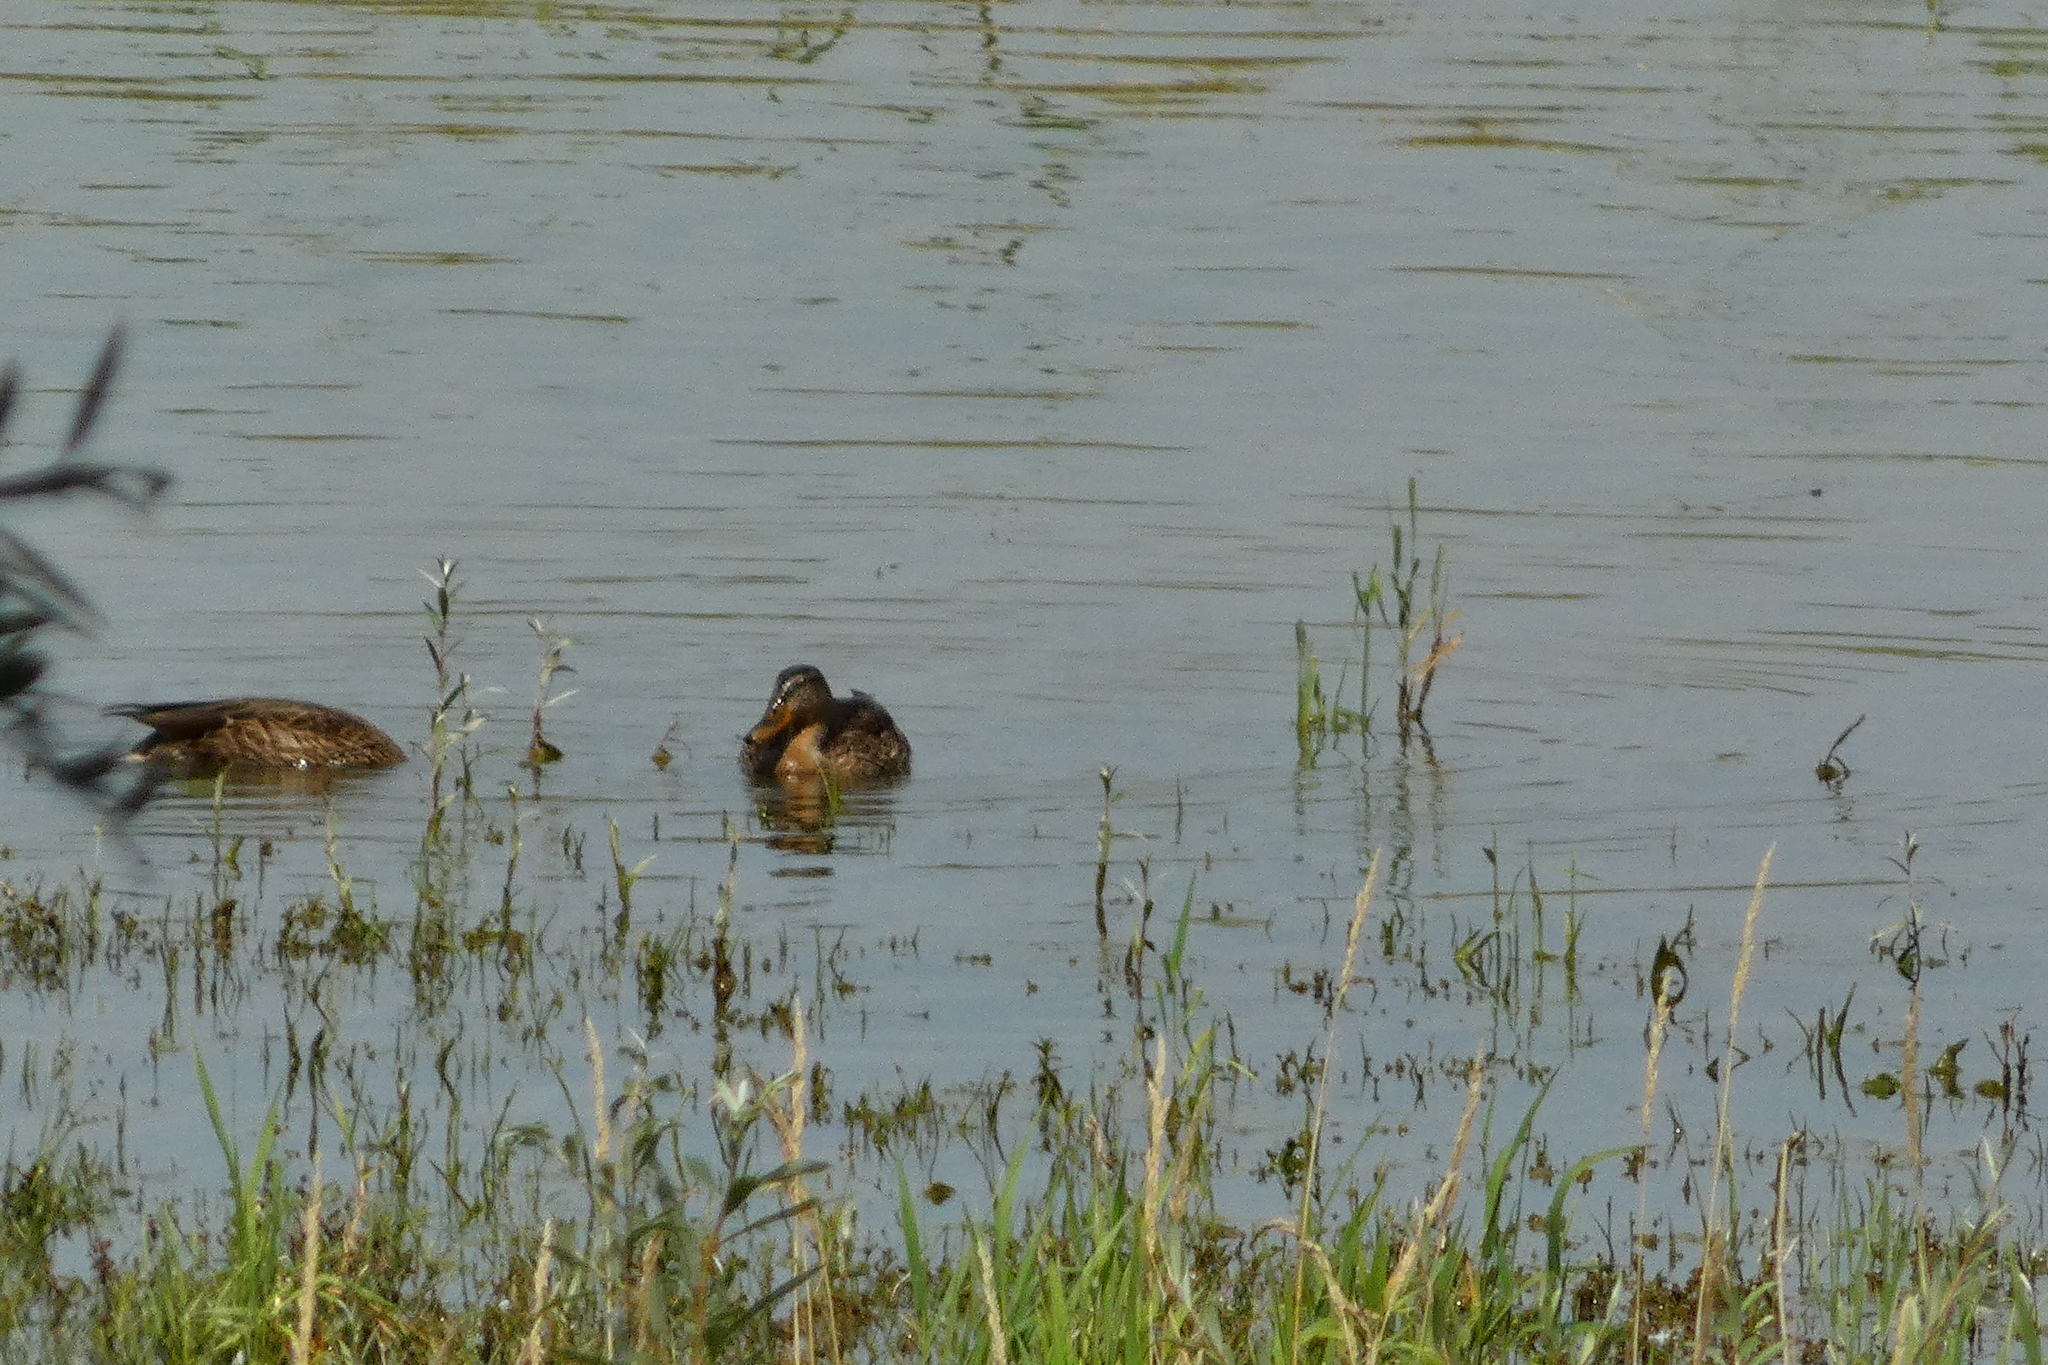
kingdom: Animalia
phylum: Chordata
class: Aves
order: Anseriformes
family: Anatidae
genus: Anas
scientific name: Anas platyrhynchos
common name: Mallard
